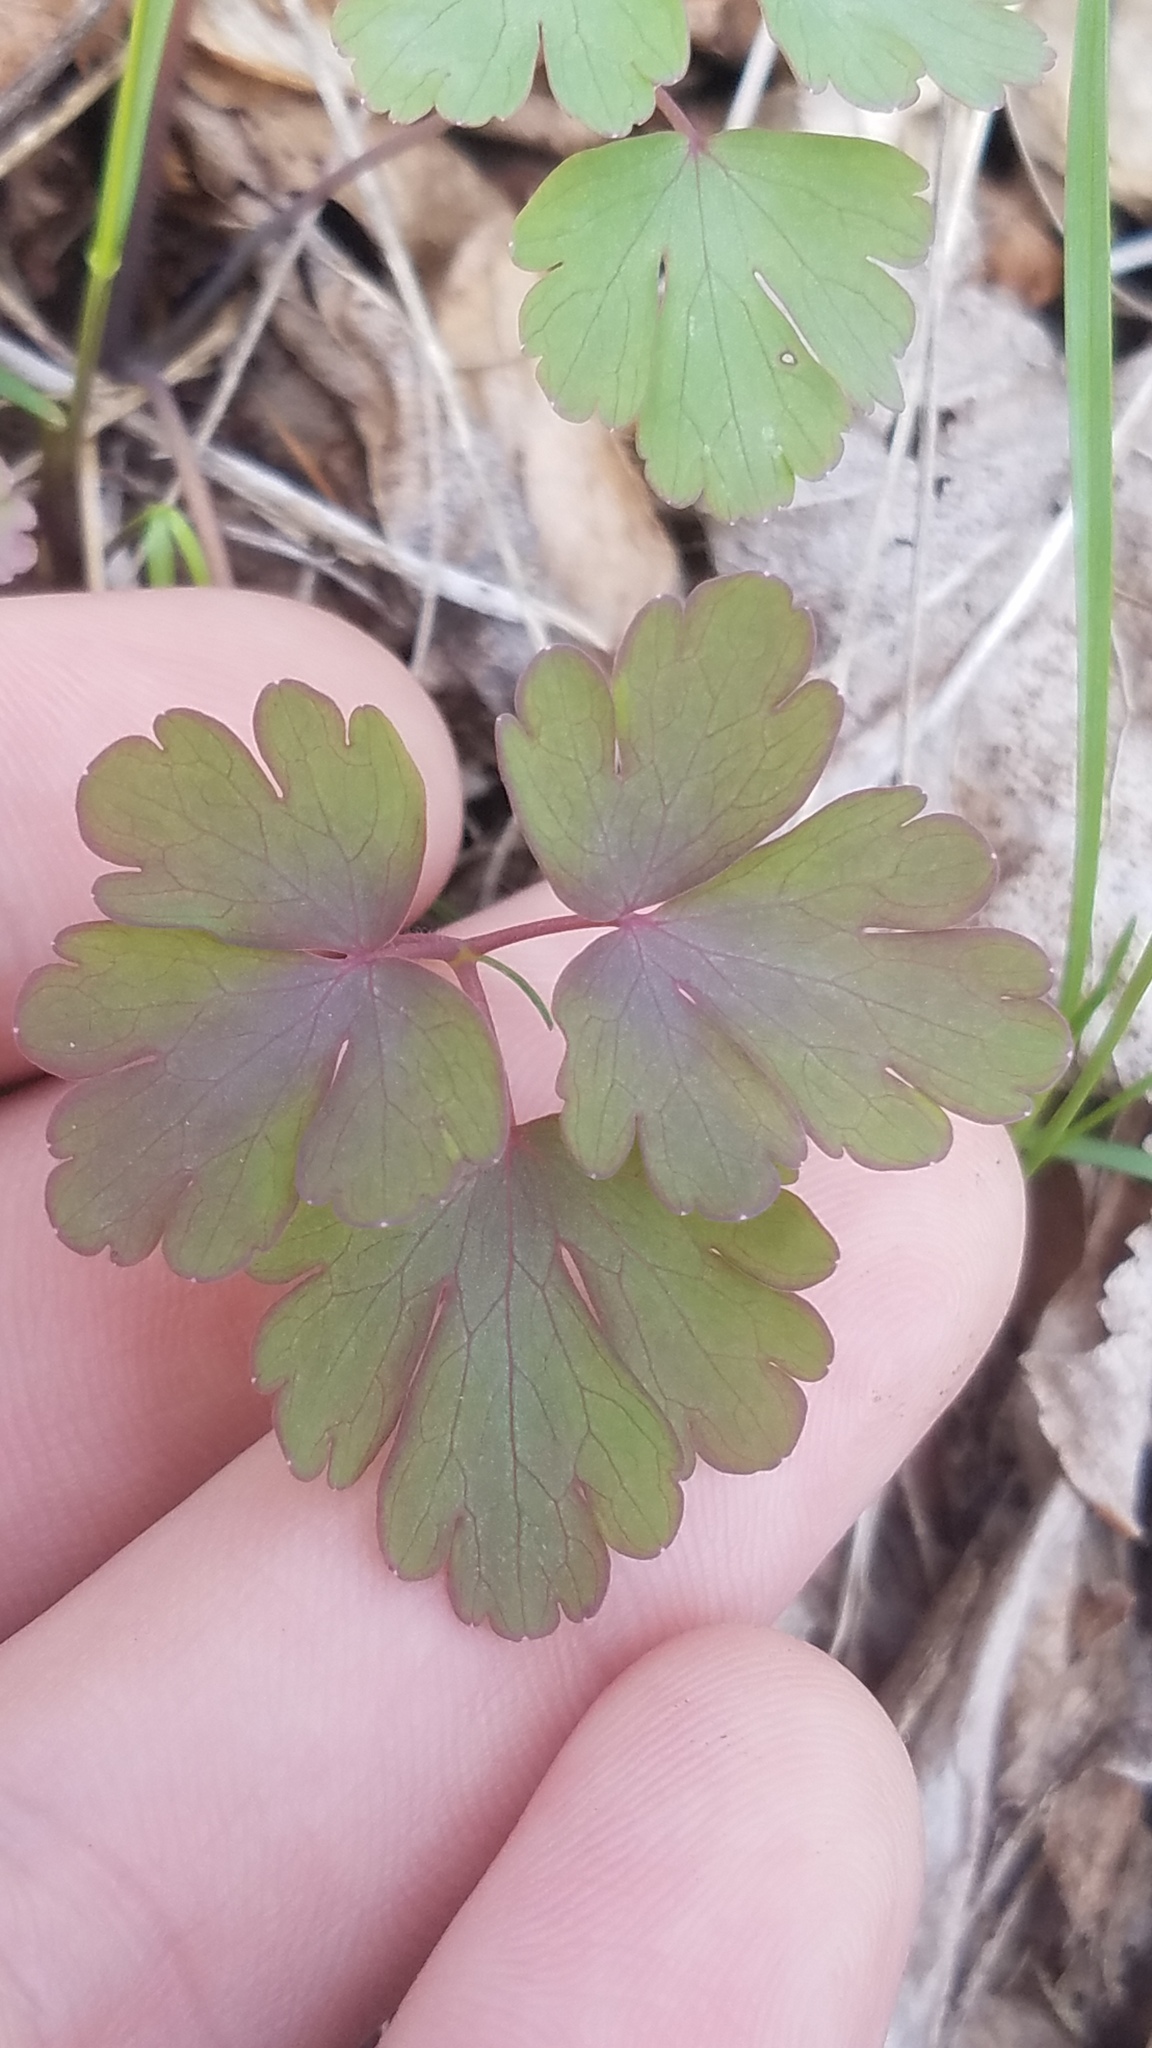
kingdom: Plantae
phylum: Tracheophyta
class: Magnoliopsida
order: Ranunculales
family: Ranunculaceae
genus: Aquilegia
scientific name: Aquilegia canadensis
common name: American columbine
